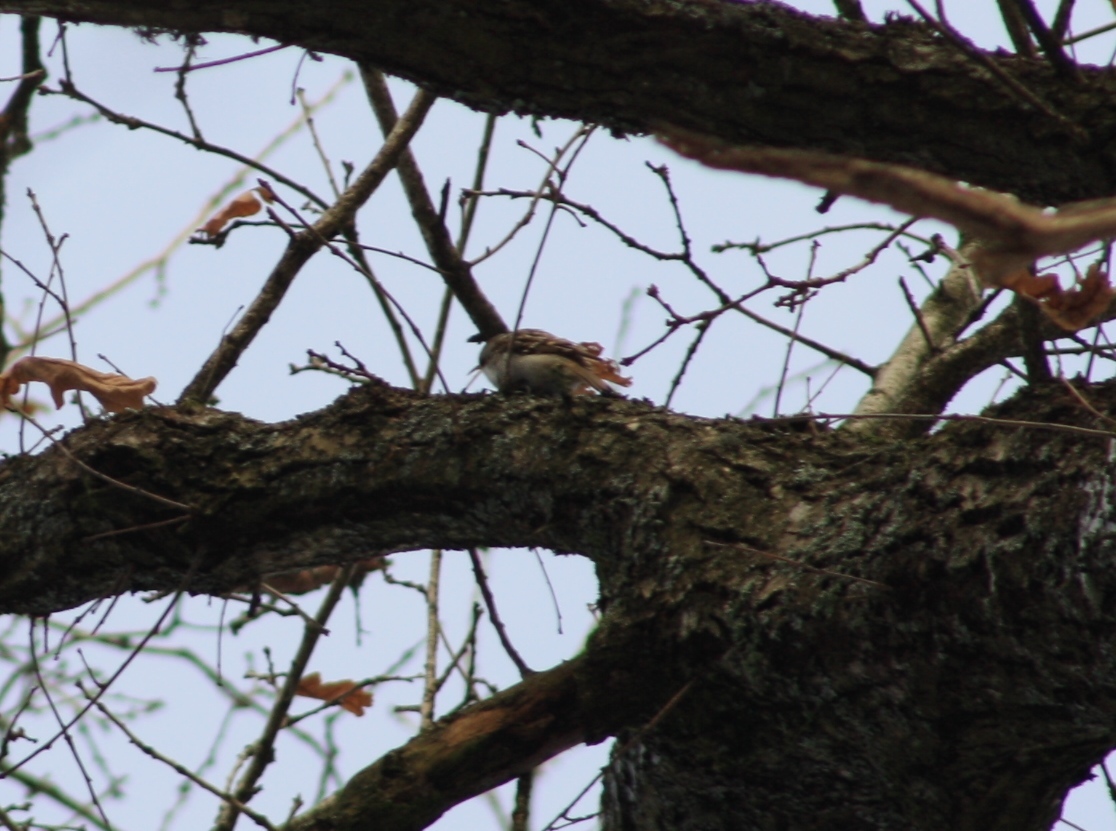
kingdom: Animalia
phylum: Chordata
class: Aves
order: Passeriformes
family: Certhiidae
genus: Certhia
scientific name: Certhia familiaris
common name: Eurasian treecreeper
